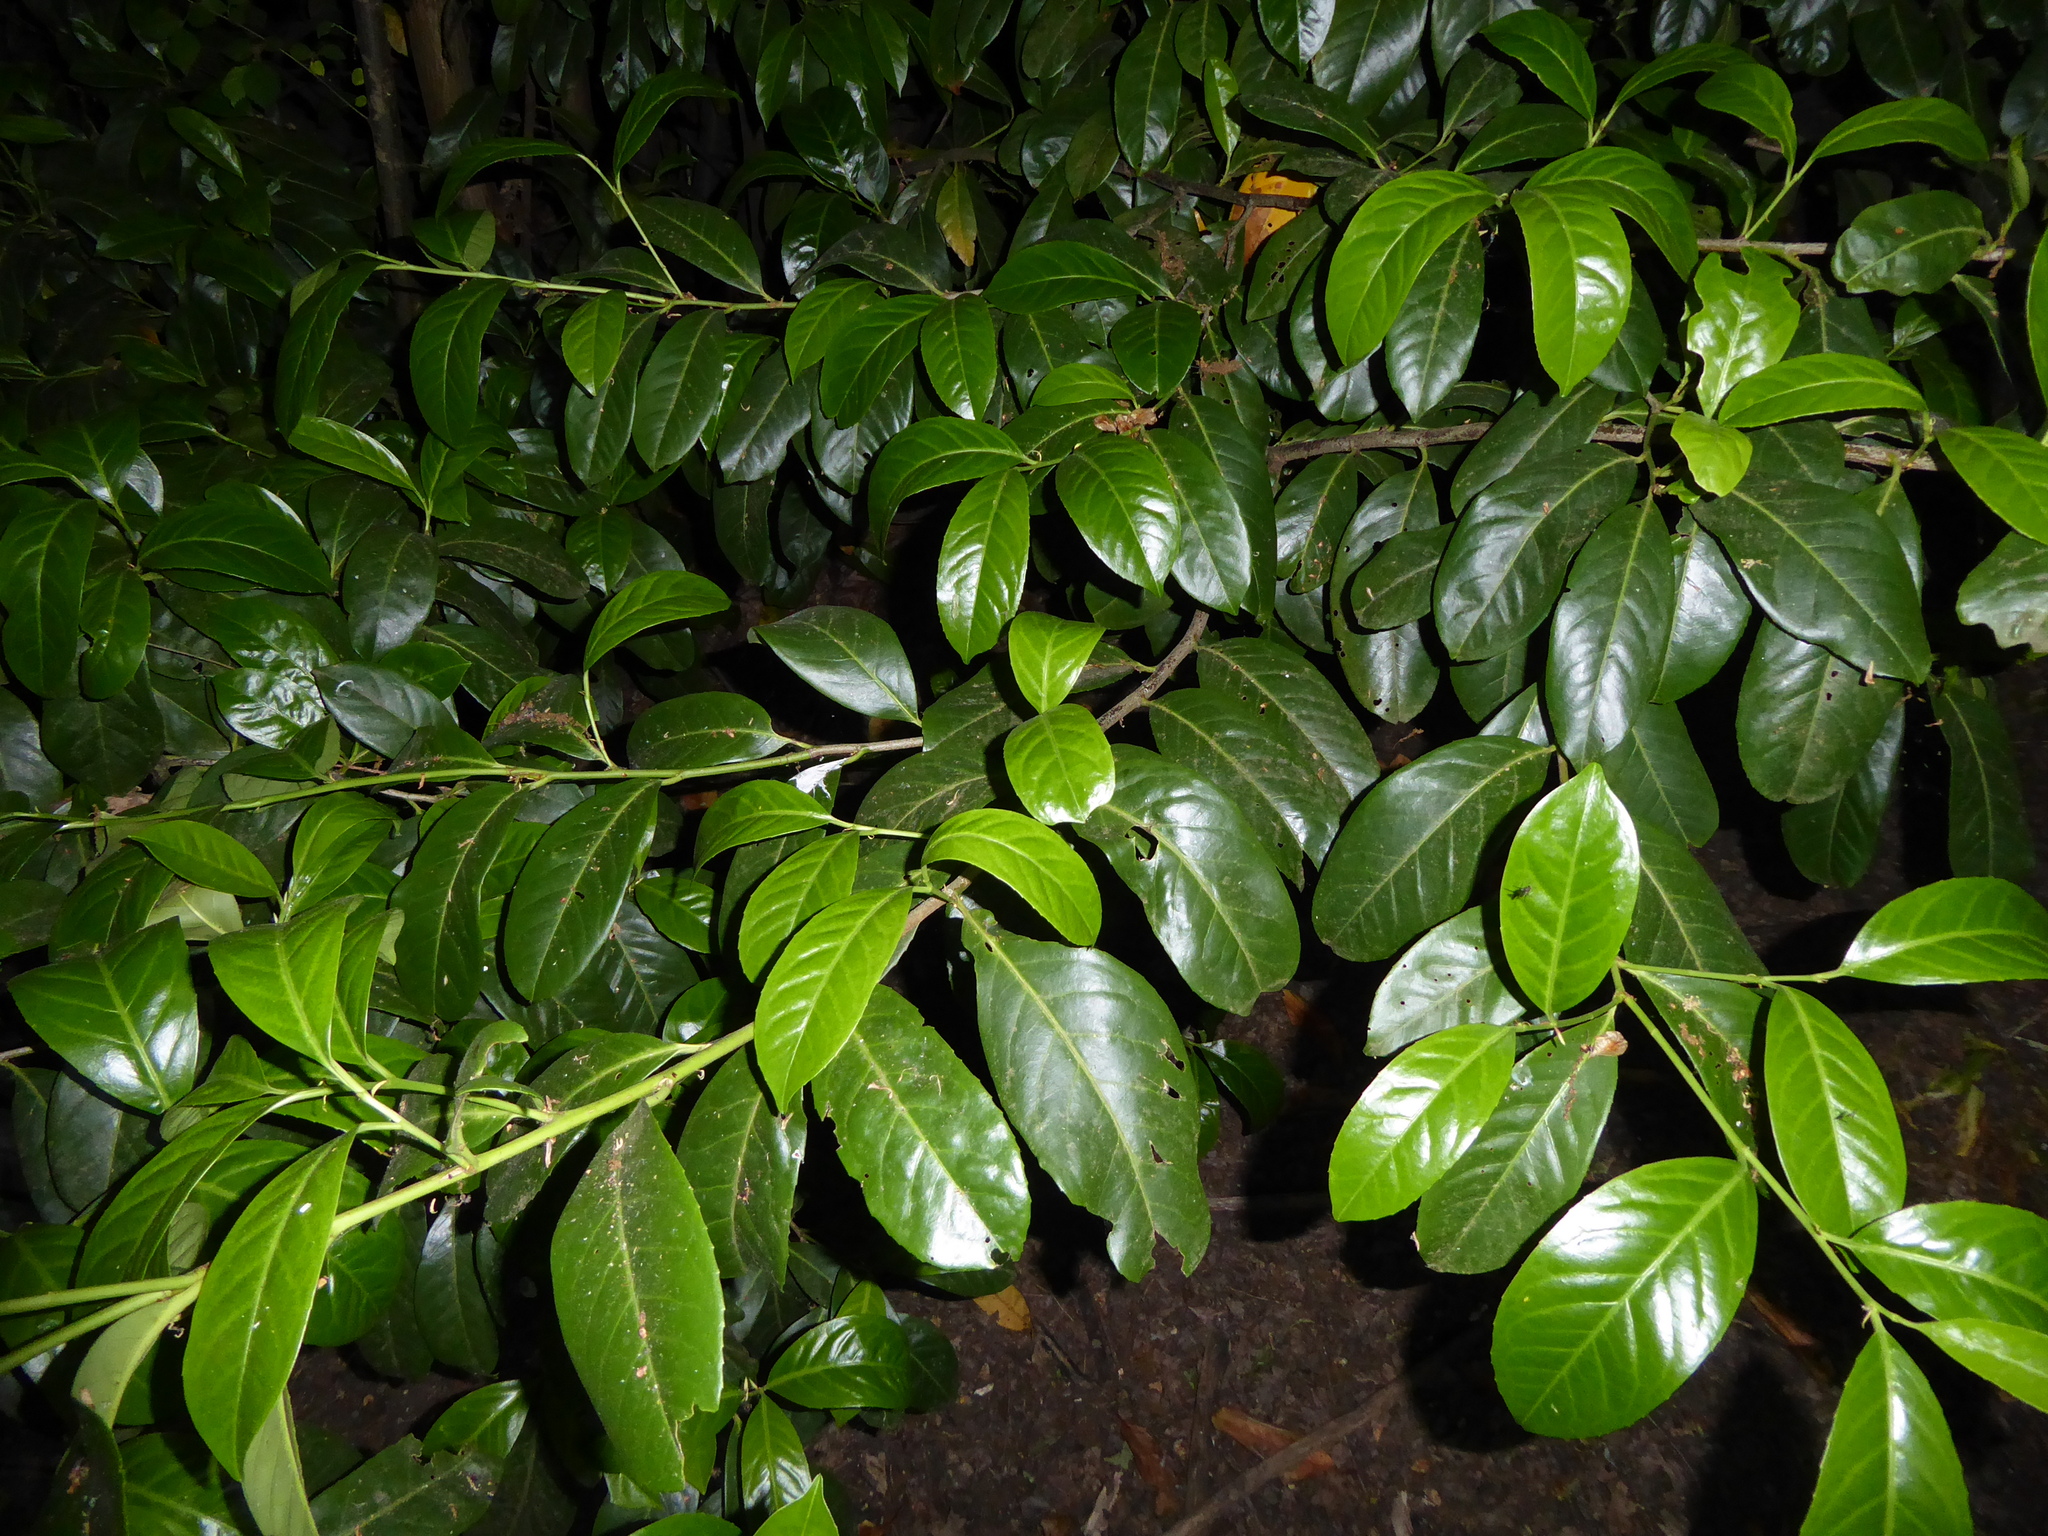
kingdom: Plantae
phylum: Tracheophyta
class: Magnoliopsida
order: Rosales
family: Rosaceae
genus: Prunus
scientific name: Prunus laurocerasus
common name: Cherry laurel
